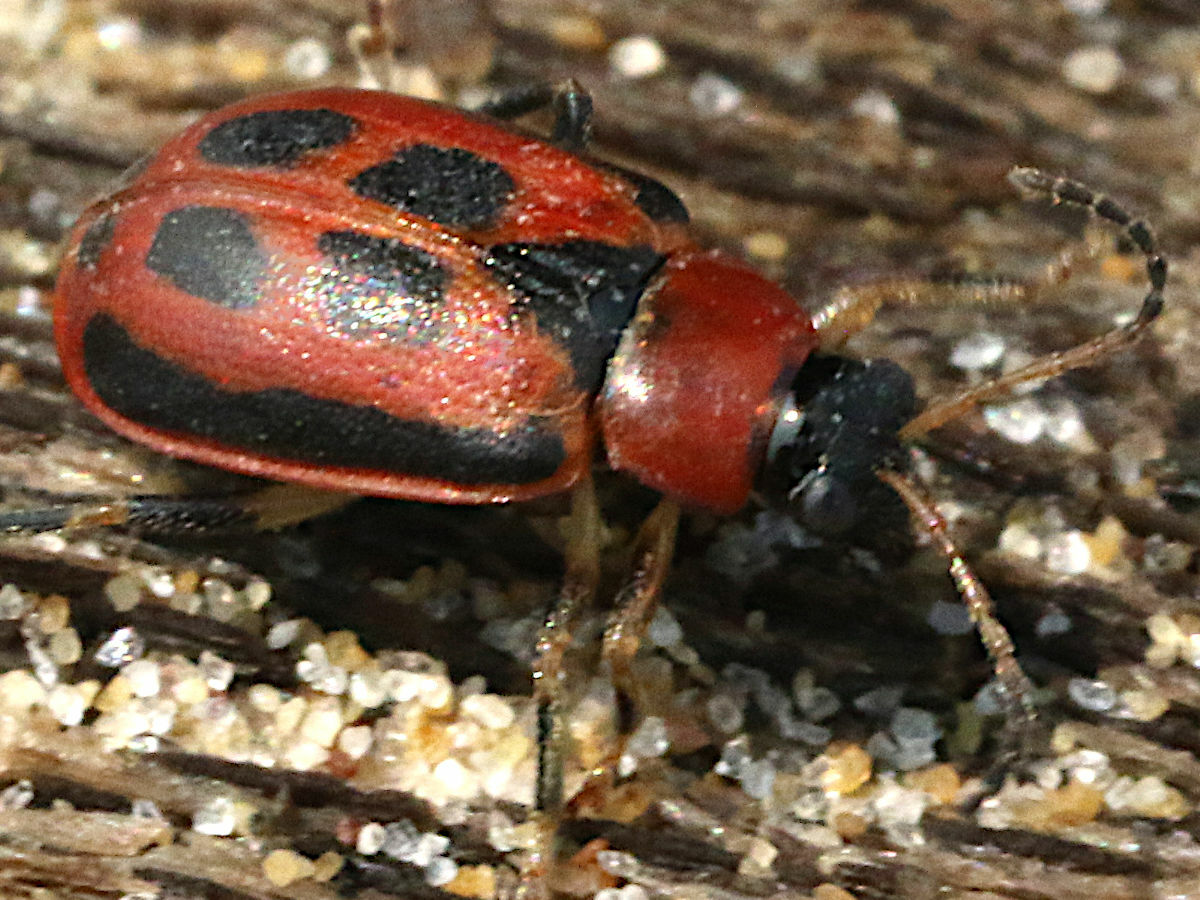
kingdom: Animalia
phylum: Arthropoda
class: Insecta
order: Coleoptera
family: Chrysomelidae
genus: Cerotoma
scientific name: Cerotoma trifurcata
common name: Bean leaf beetle
